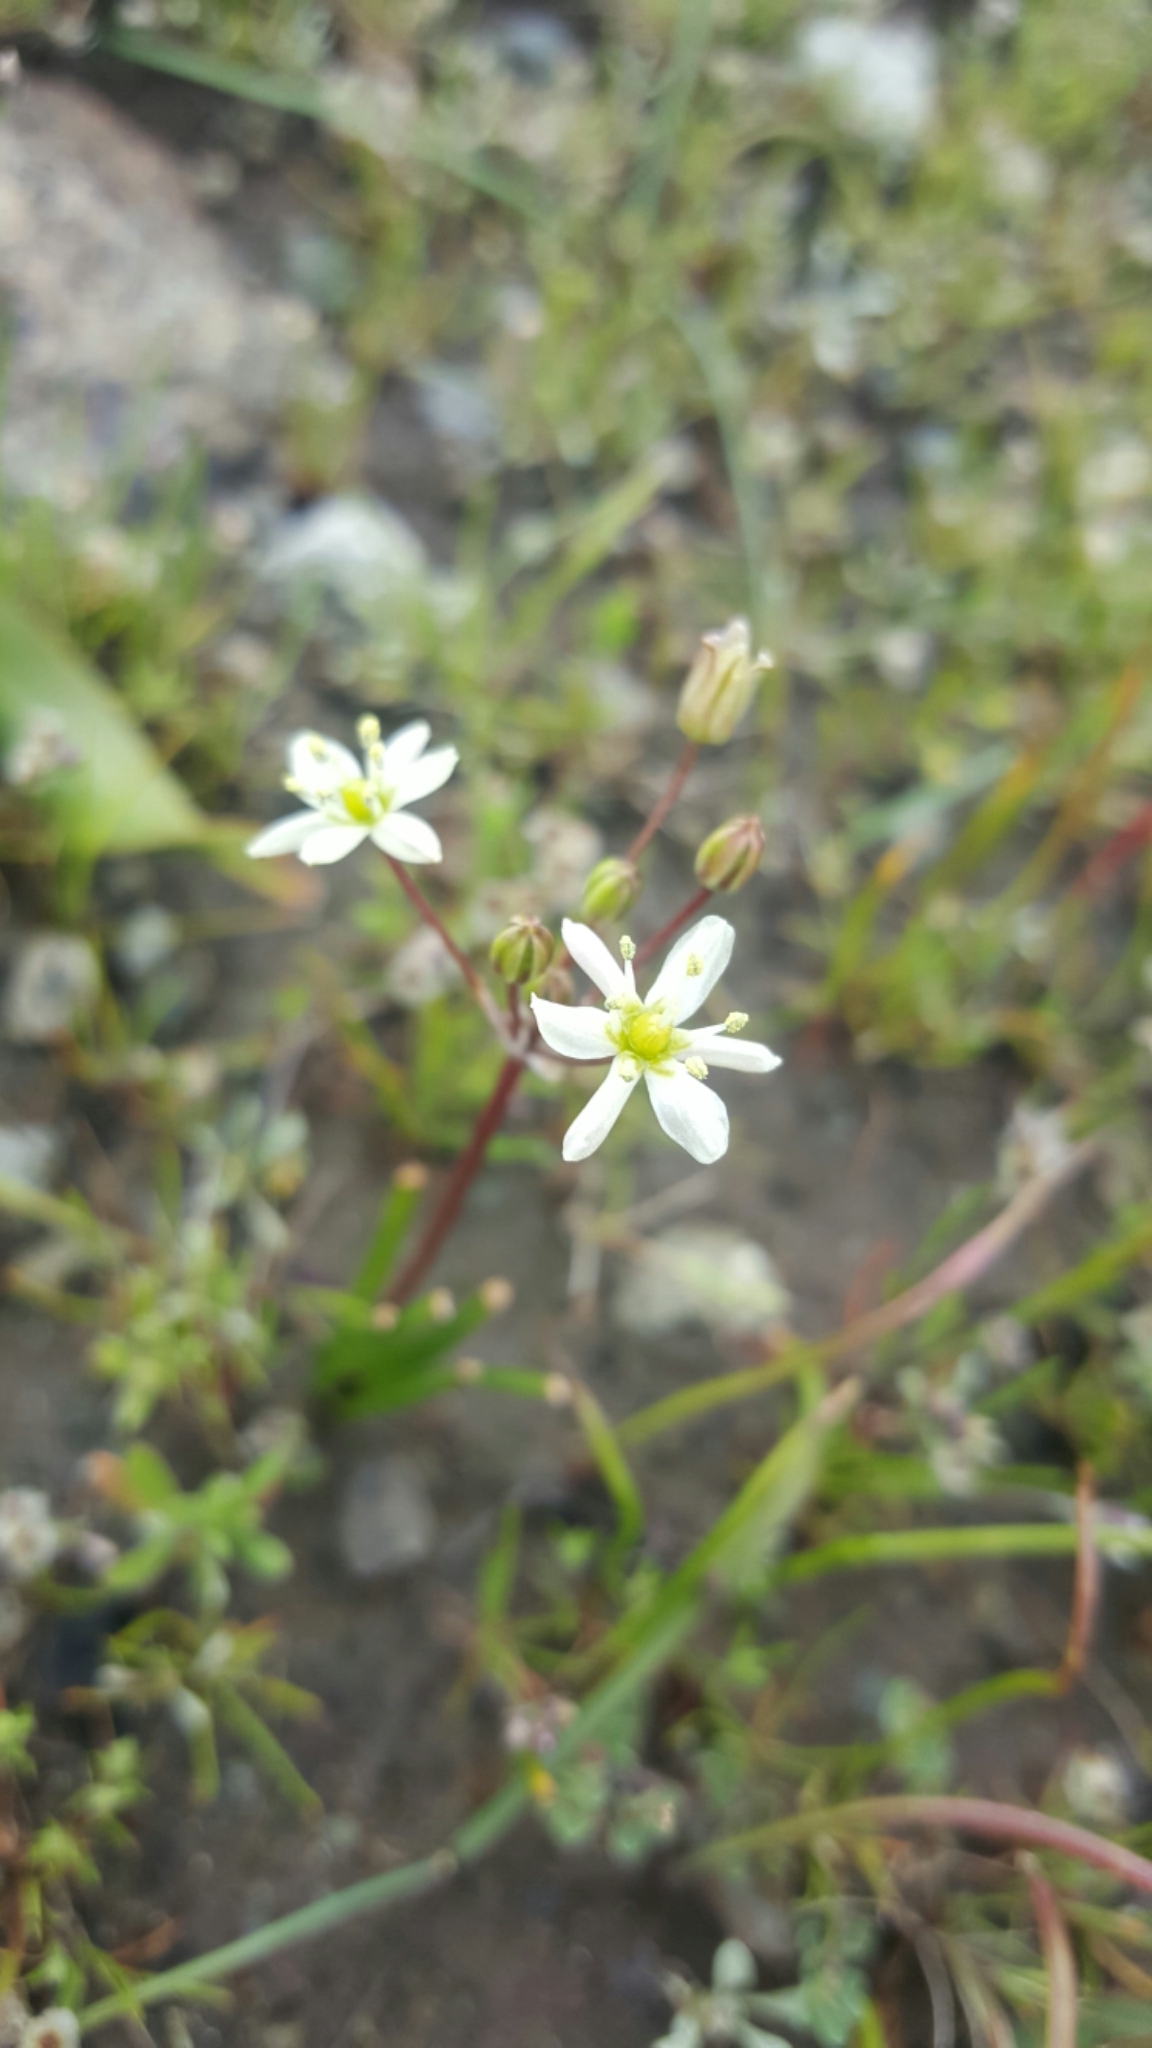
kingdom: Plantae
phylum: Tracheophyta
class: Liliopsida
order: Asparagales
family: Asparagaceae
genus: Muilla
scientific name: Muilla maritima
